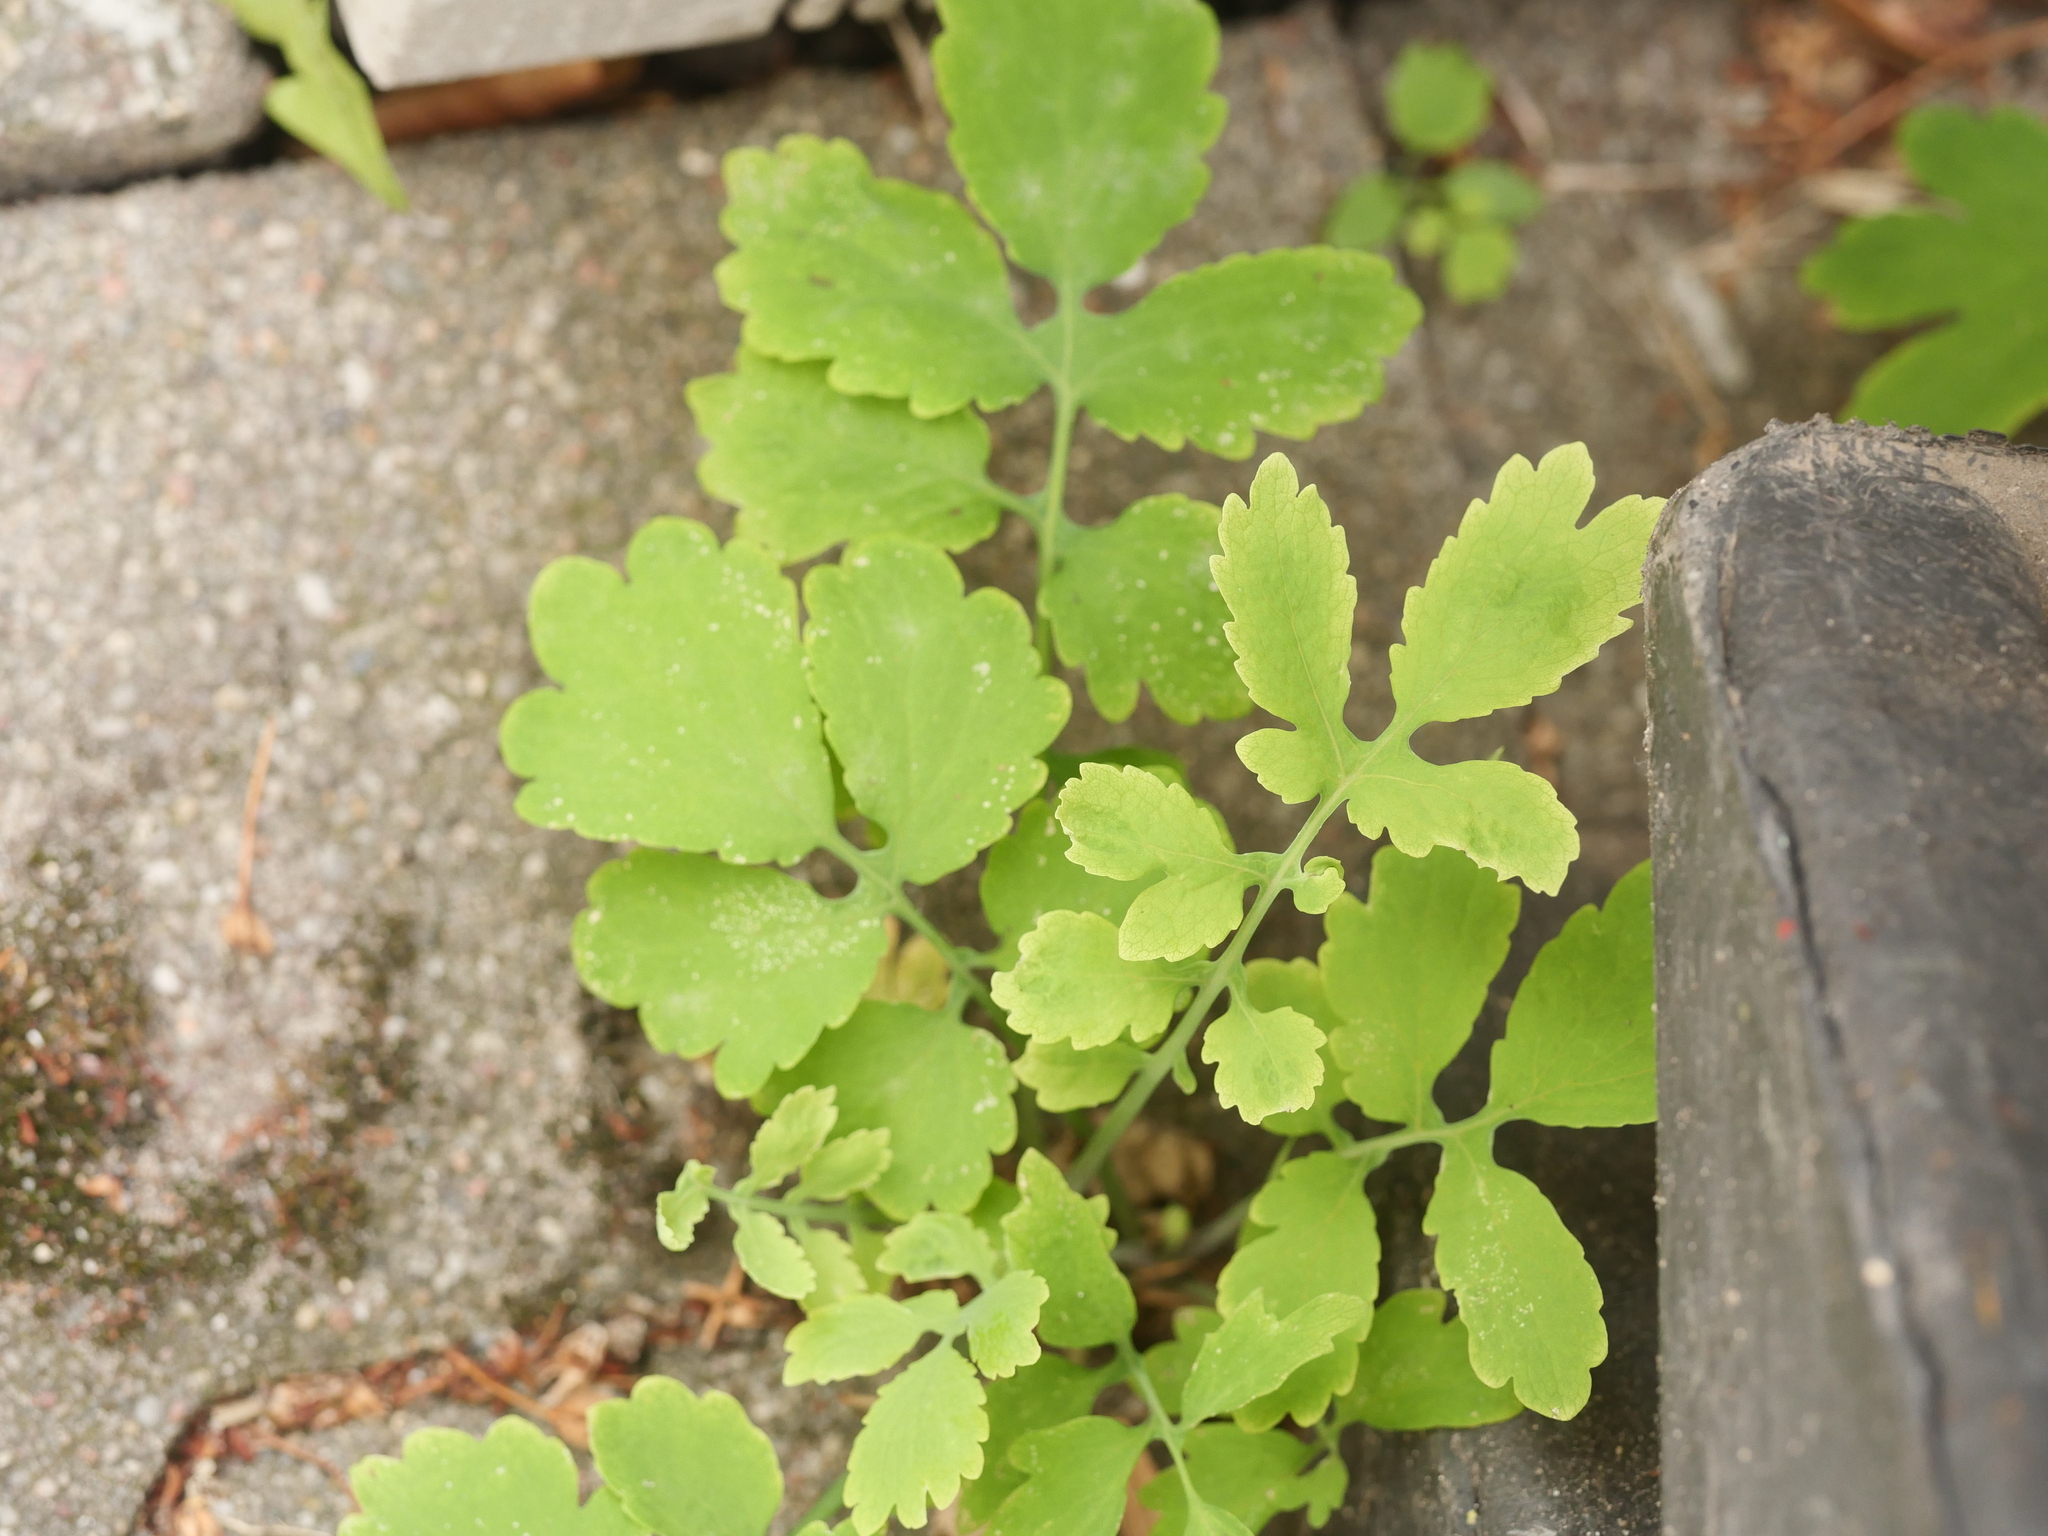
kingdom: Plantae
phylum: Tracheophyta
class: Magnoliopsida
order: Ranunculales
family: Papaveraceae
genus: Chelidonium
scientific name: Chelidonium majus
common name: Greater celandine
